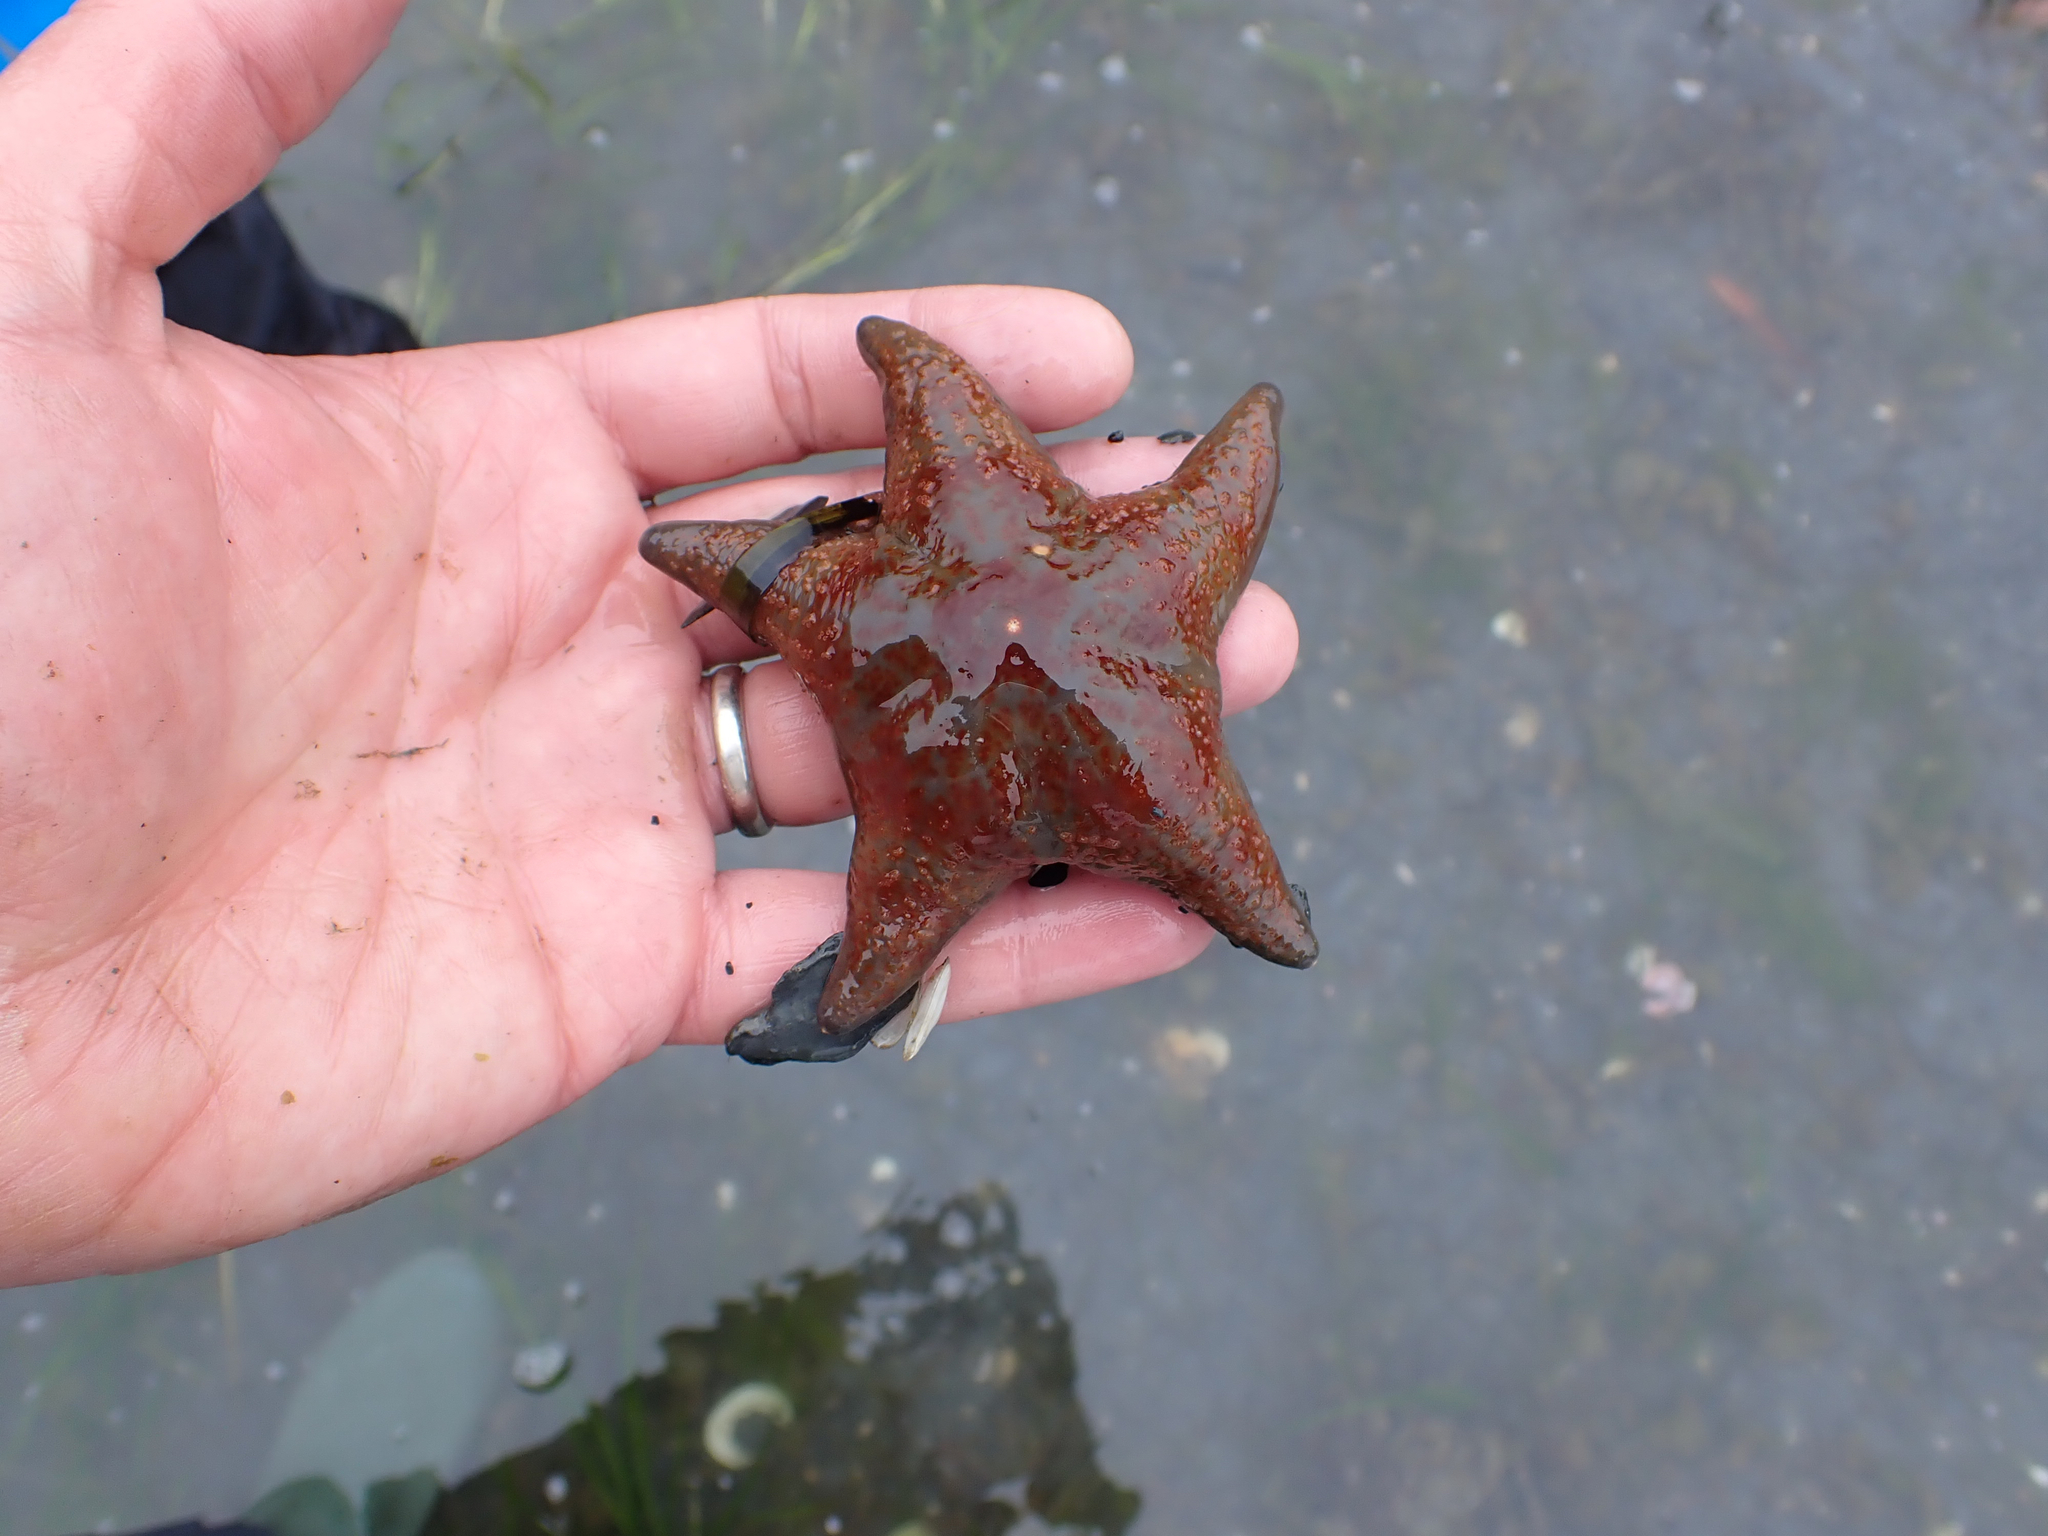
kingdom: Animalia
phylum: Echinodermata
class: Asteroidea
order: Valvatida
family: Asteropseidae
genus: Dermasterias
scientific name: Dermasterias imbricata
